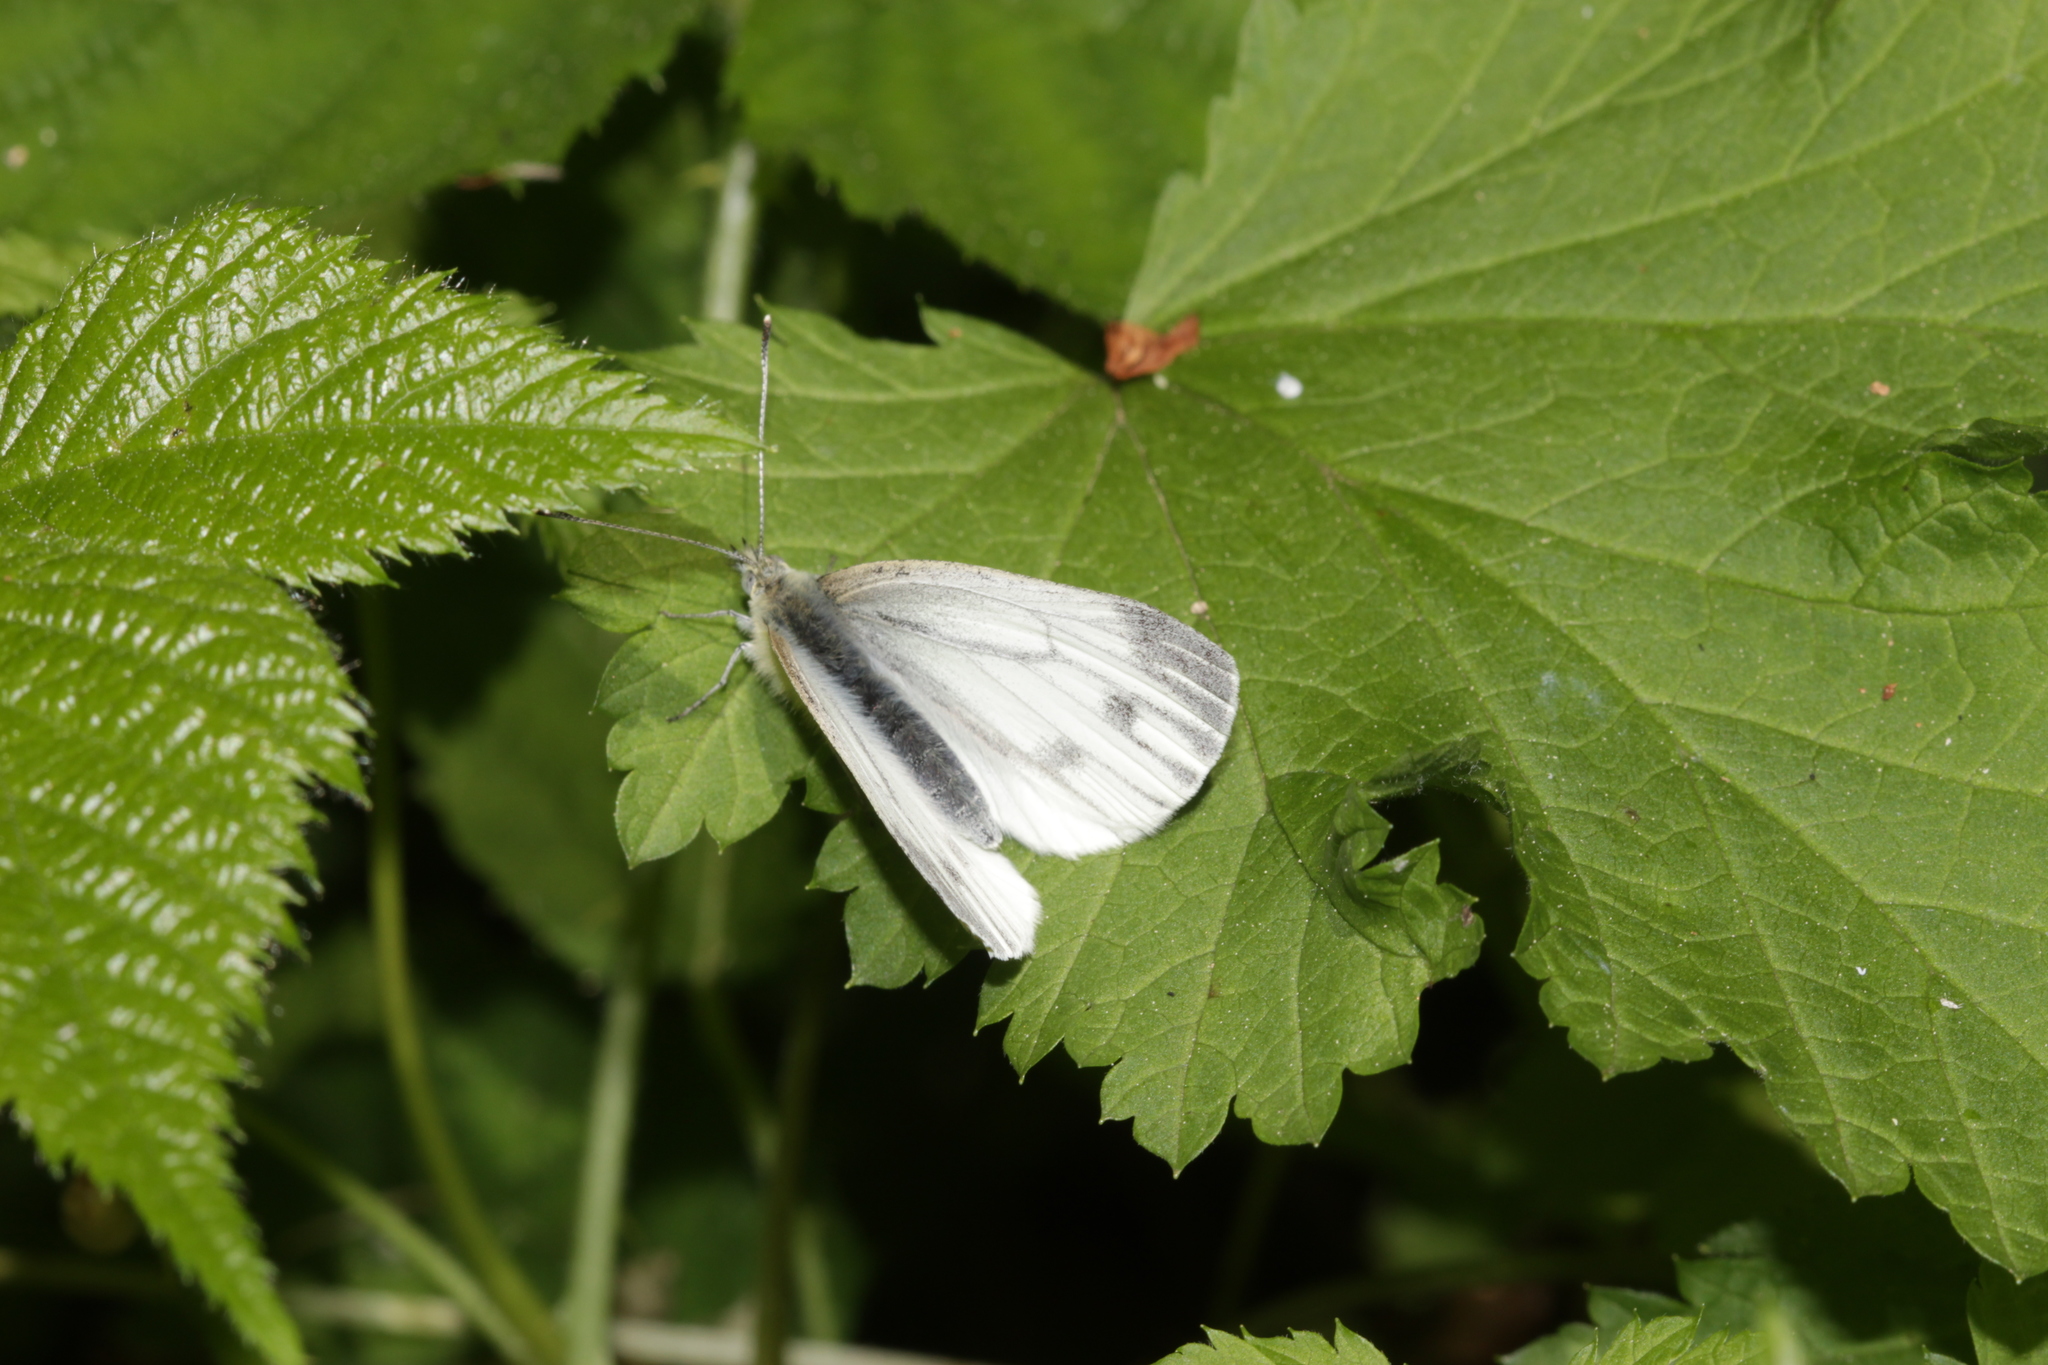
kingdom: Animalia
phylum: Arthropoda
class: Insecta
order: Lepidoptera
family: Pieridae
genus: Pieris
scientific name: Pieris napi
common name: Green-veined white
